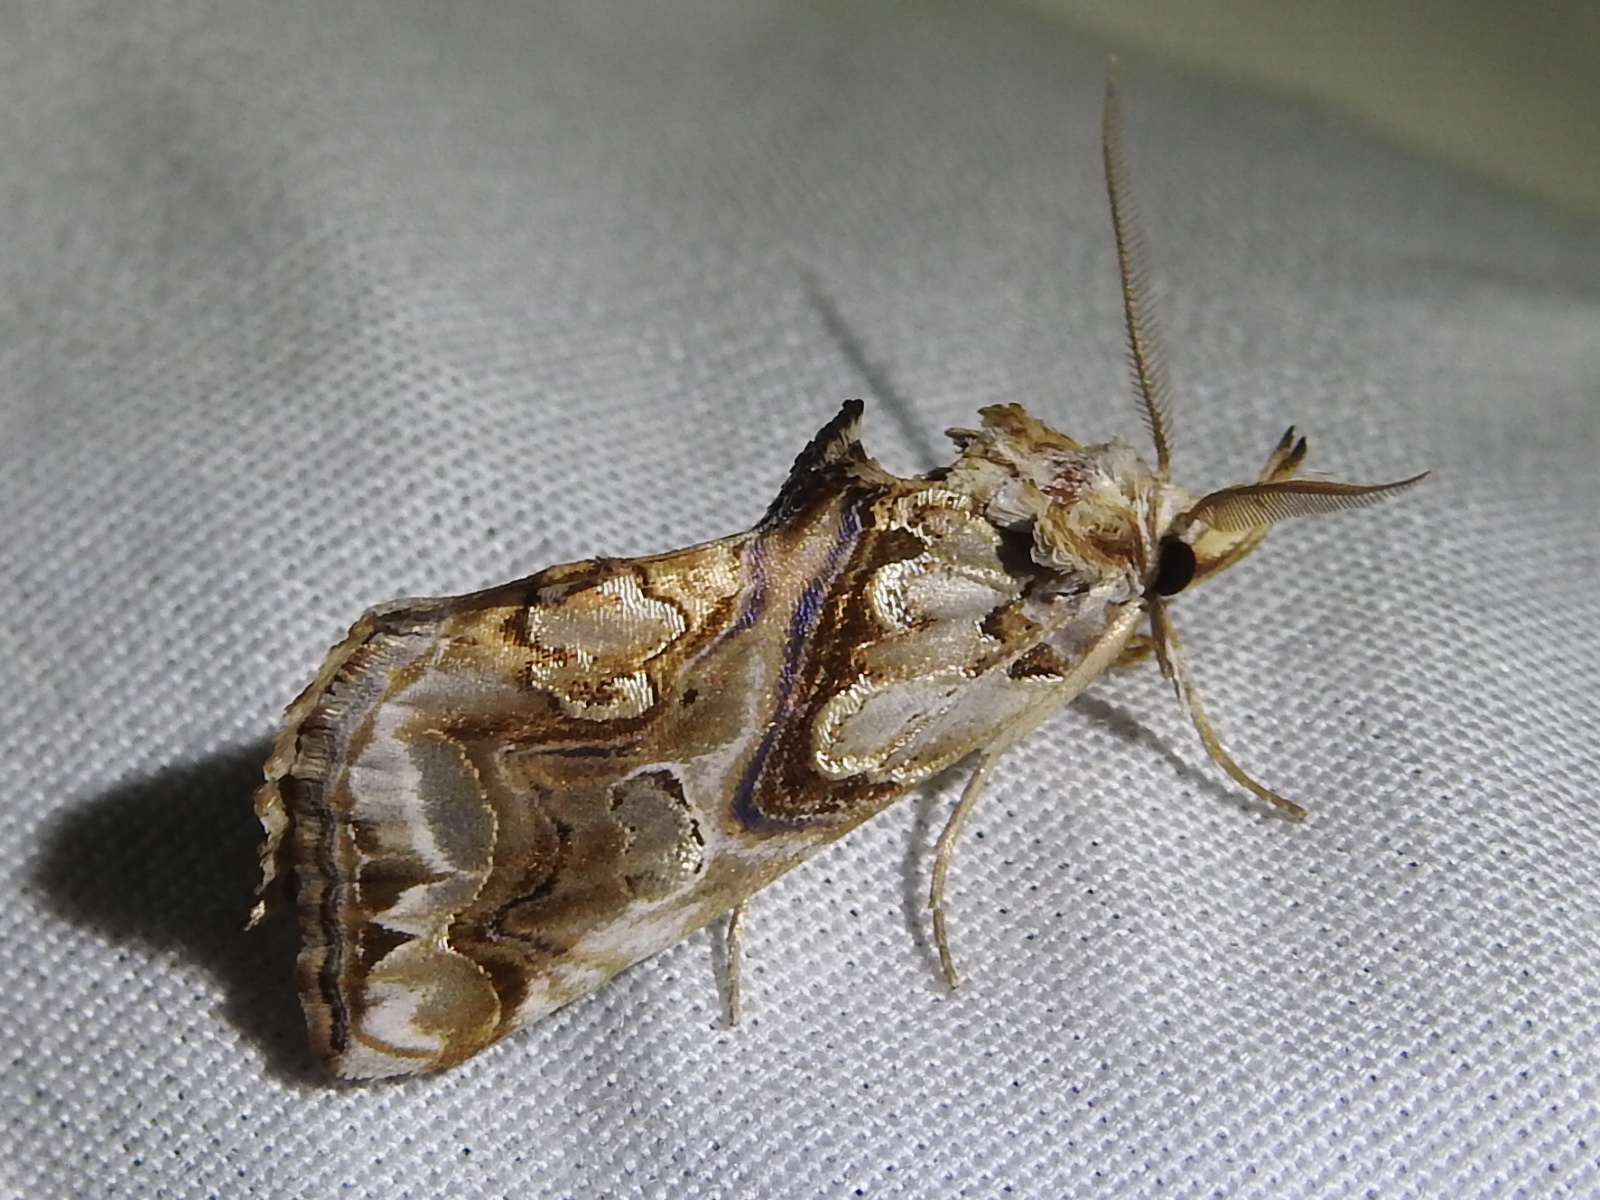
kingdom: Animalia
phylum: Arthropoda
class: Insecta
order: Lepidoptera
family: Erebidae
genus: Plusiodonta
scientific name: Plusiodonta compressipalpis
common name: Moonseed moth
